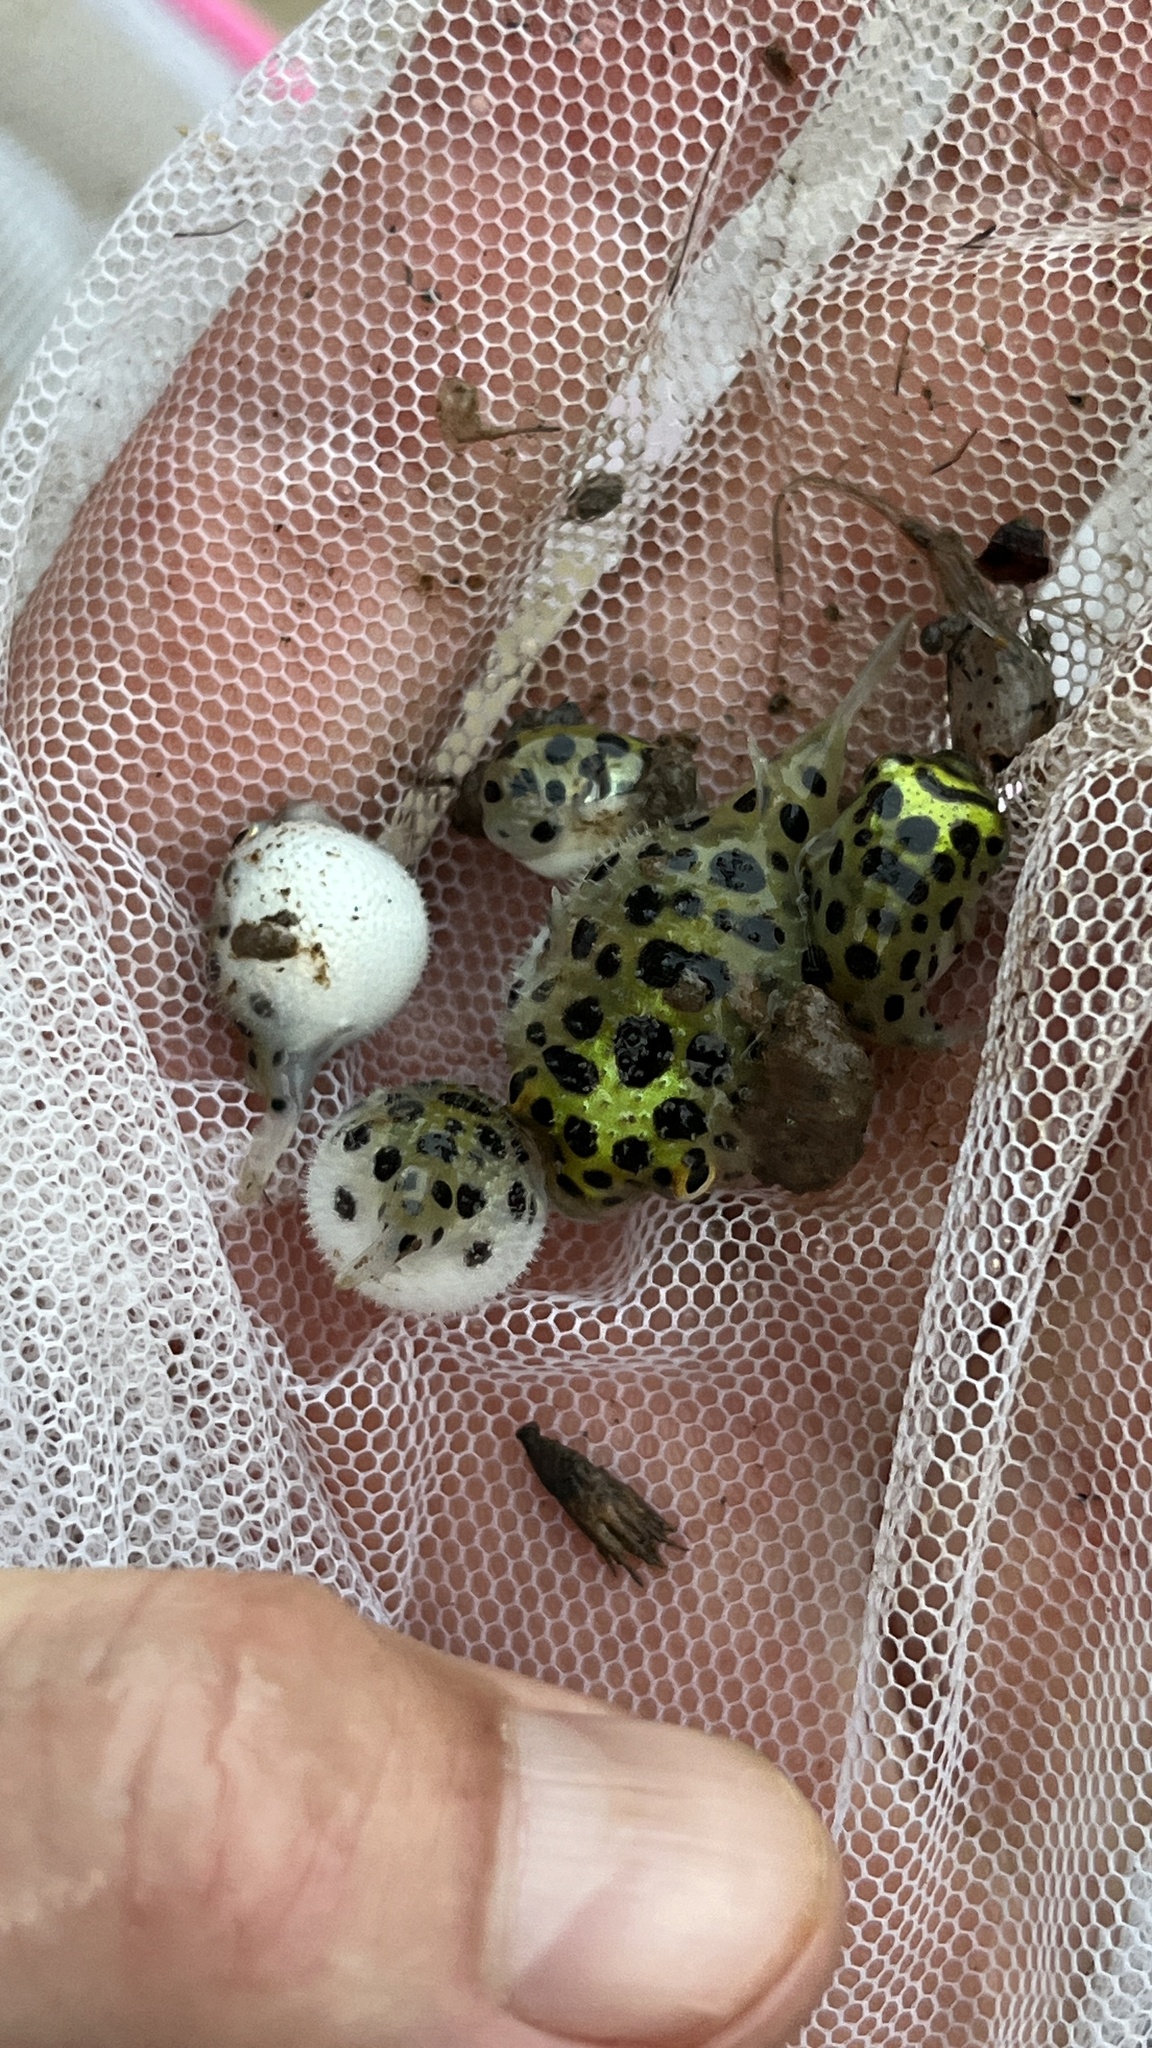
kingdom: Animalia
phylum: Chordata
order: Tetraodontiformes
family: Tetraodontidae
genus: Dichotomyctere
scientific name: Dichotomyctere nigroviridis
